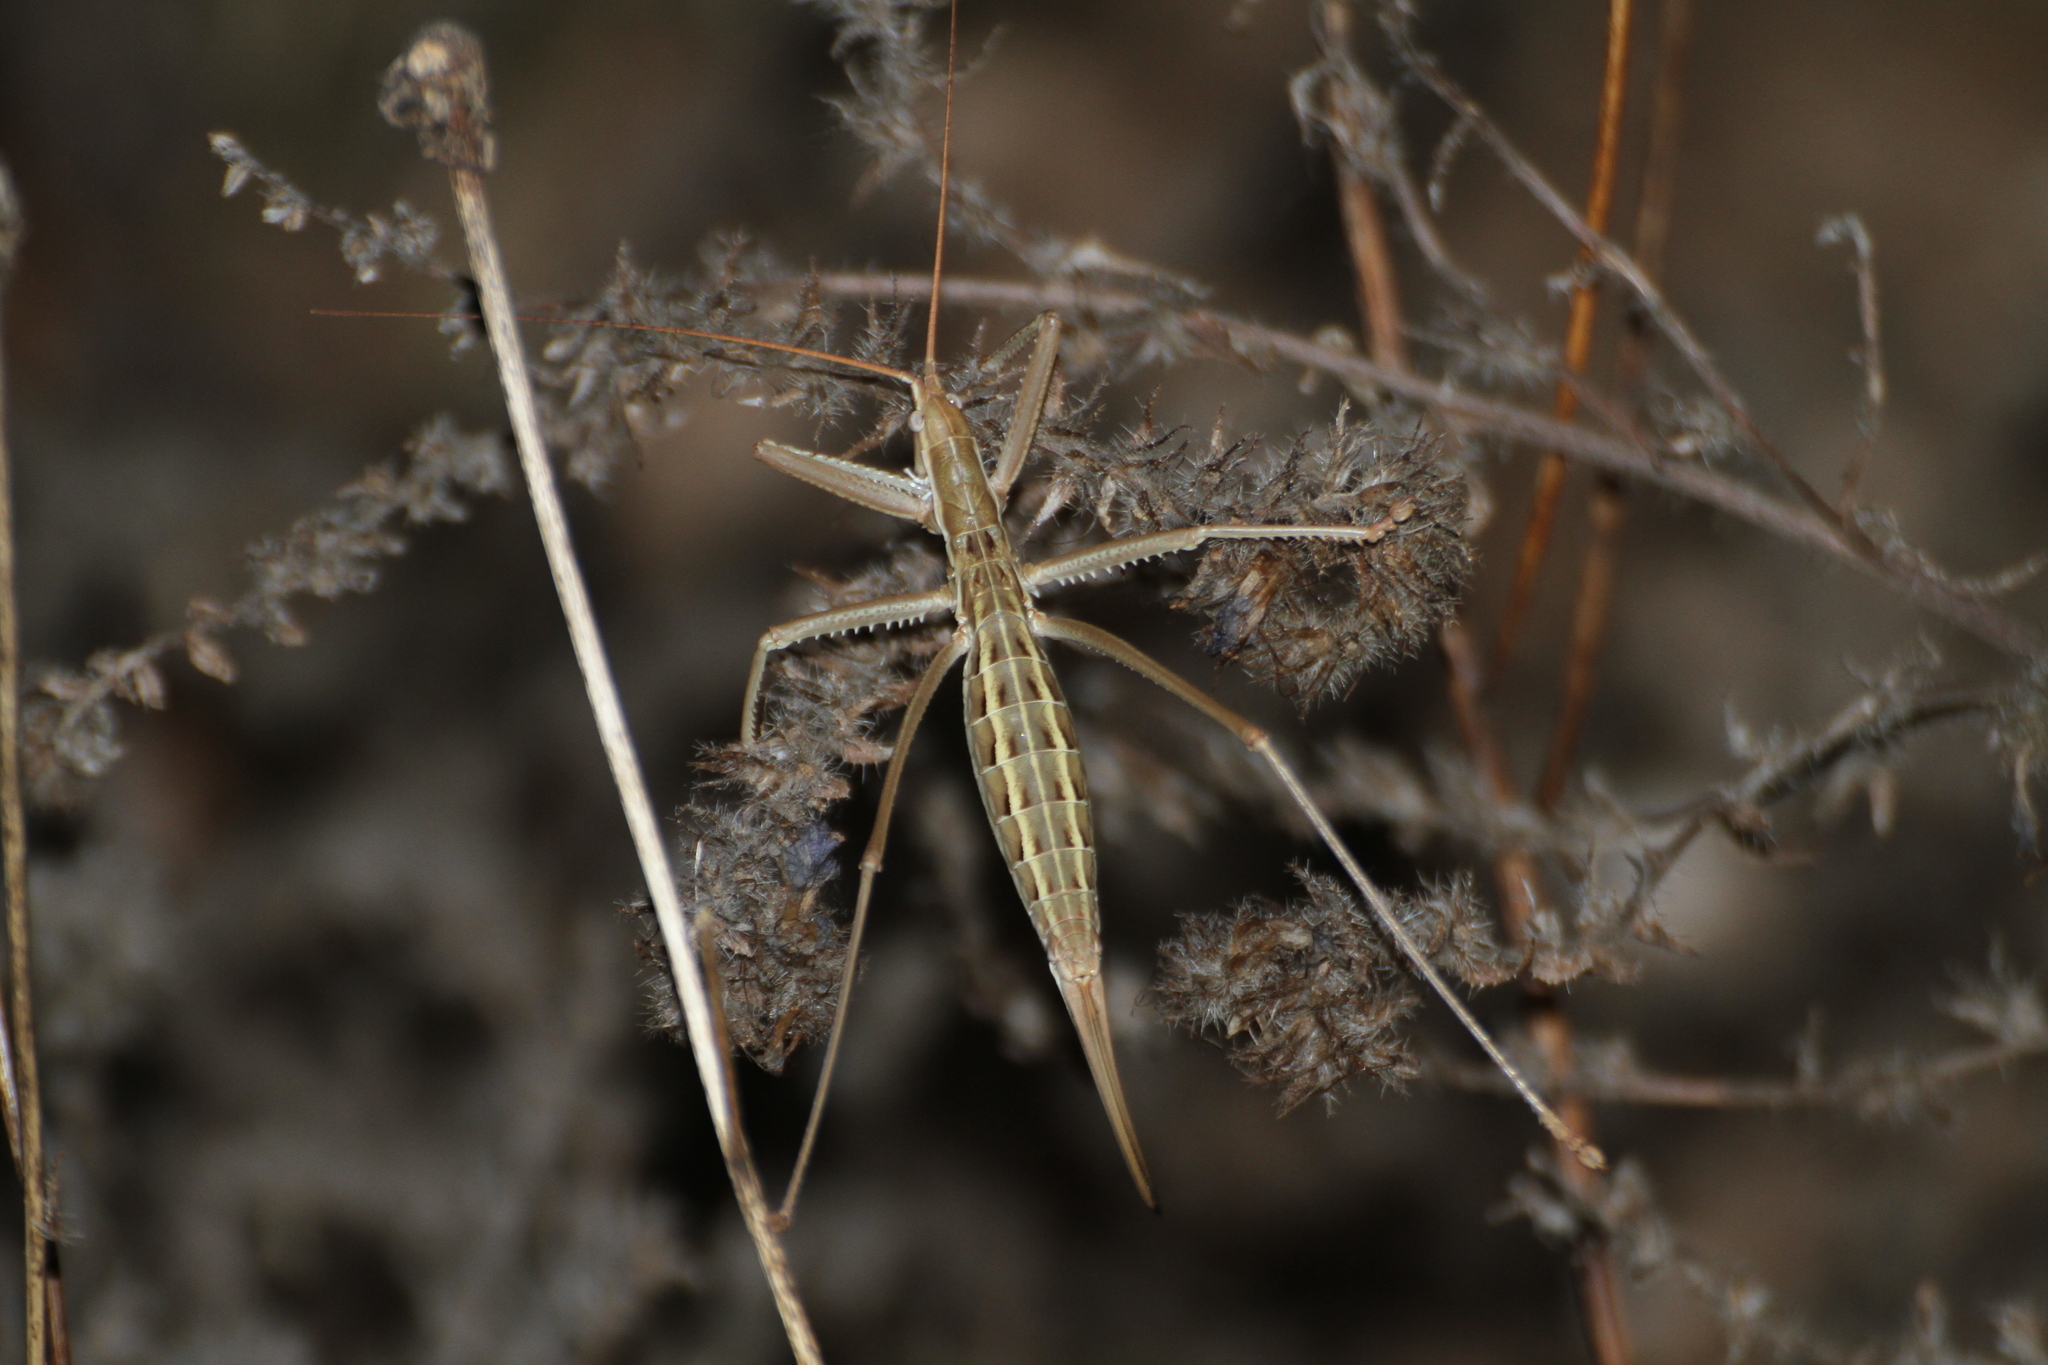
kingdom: Animalia
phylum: Arthropoda
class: Insecta
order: Orthoptera
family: Tettigoniidae
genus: Saga
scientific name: Saga pedo
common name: Common predatory bush-cricket
